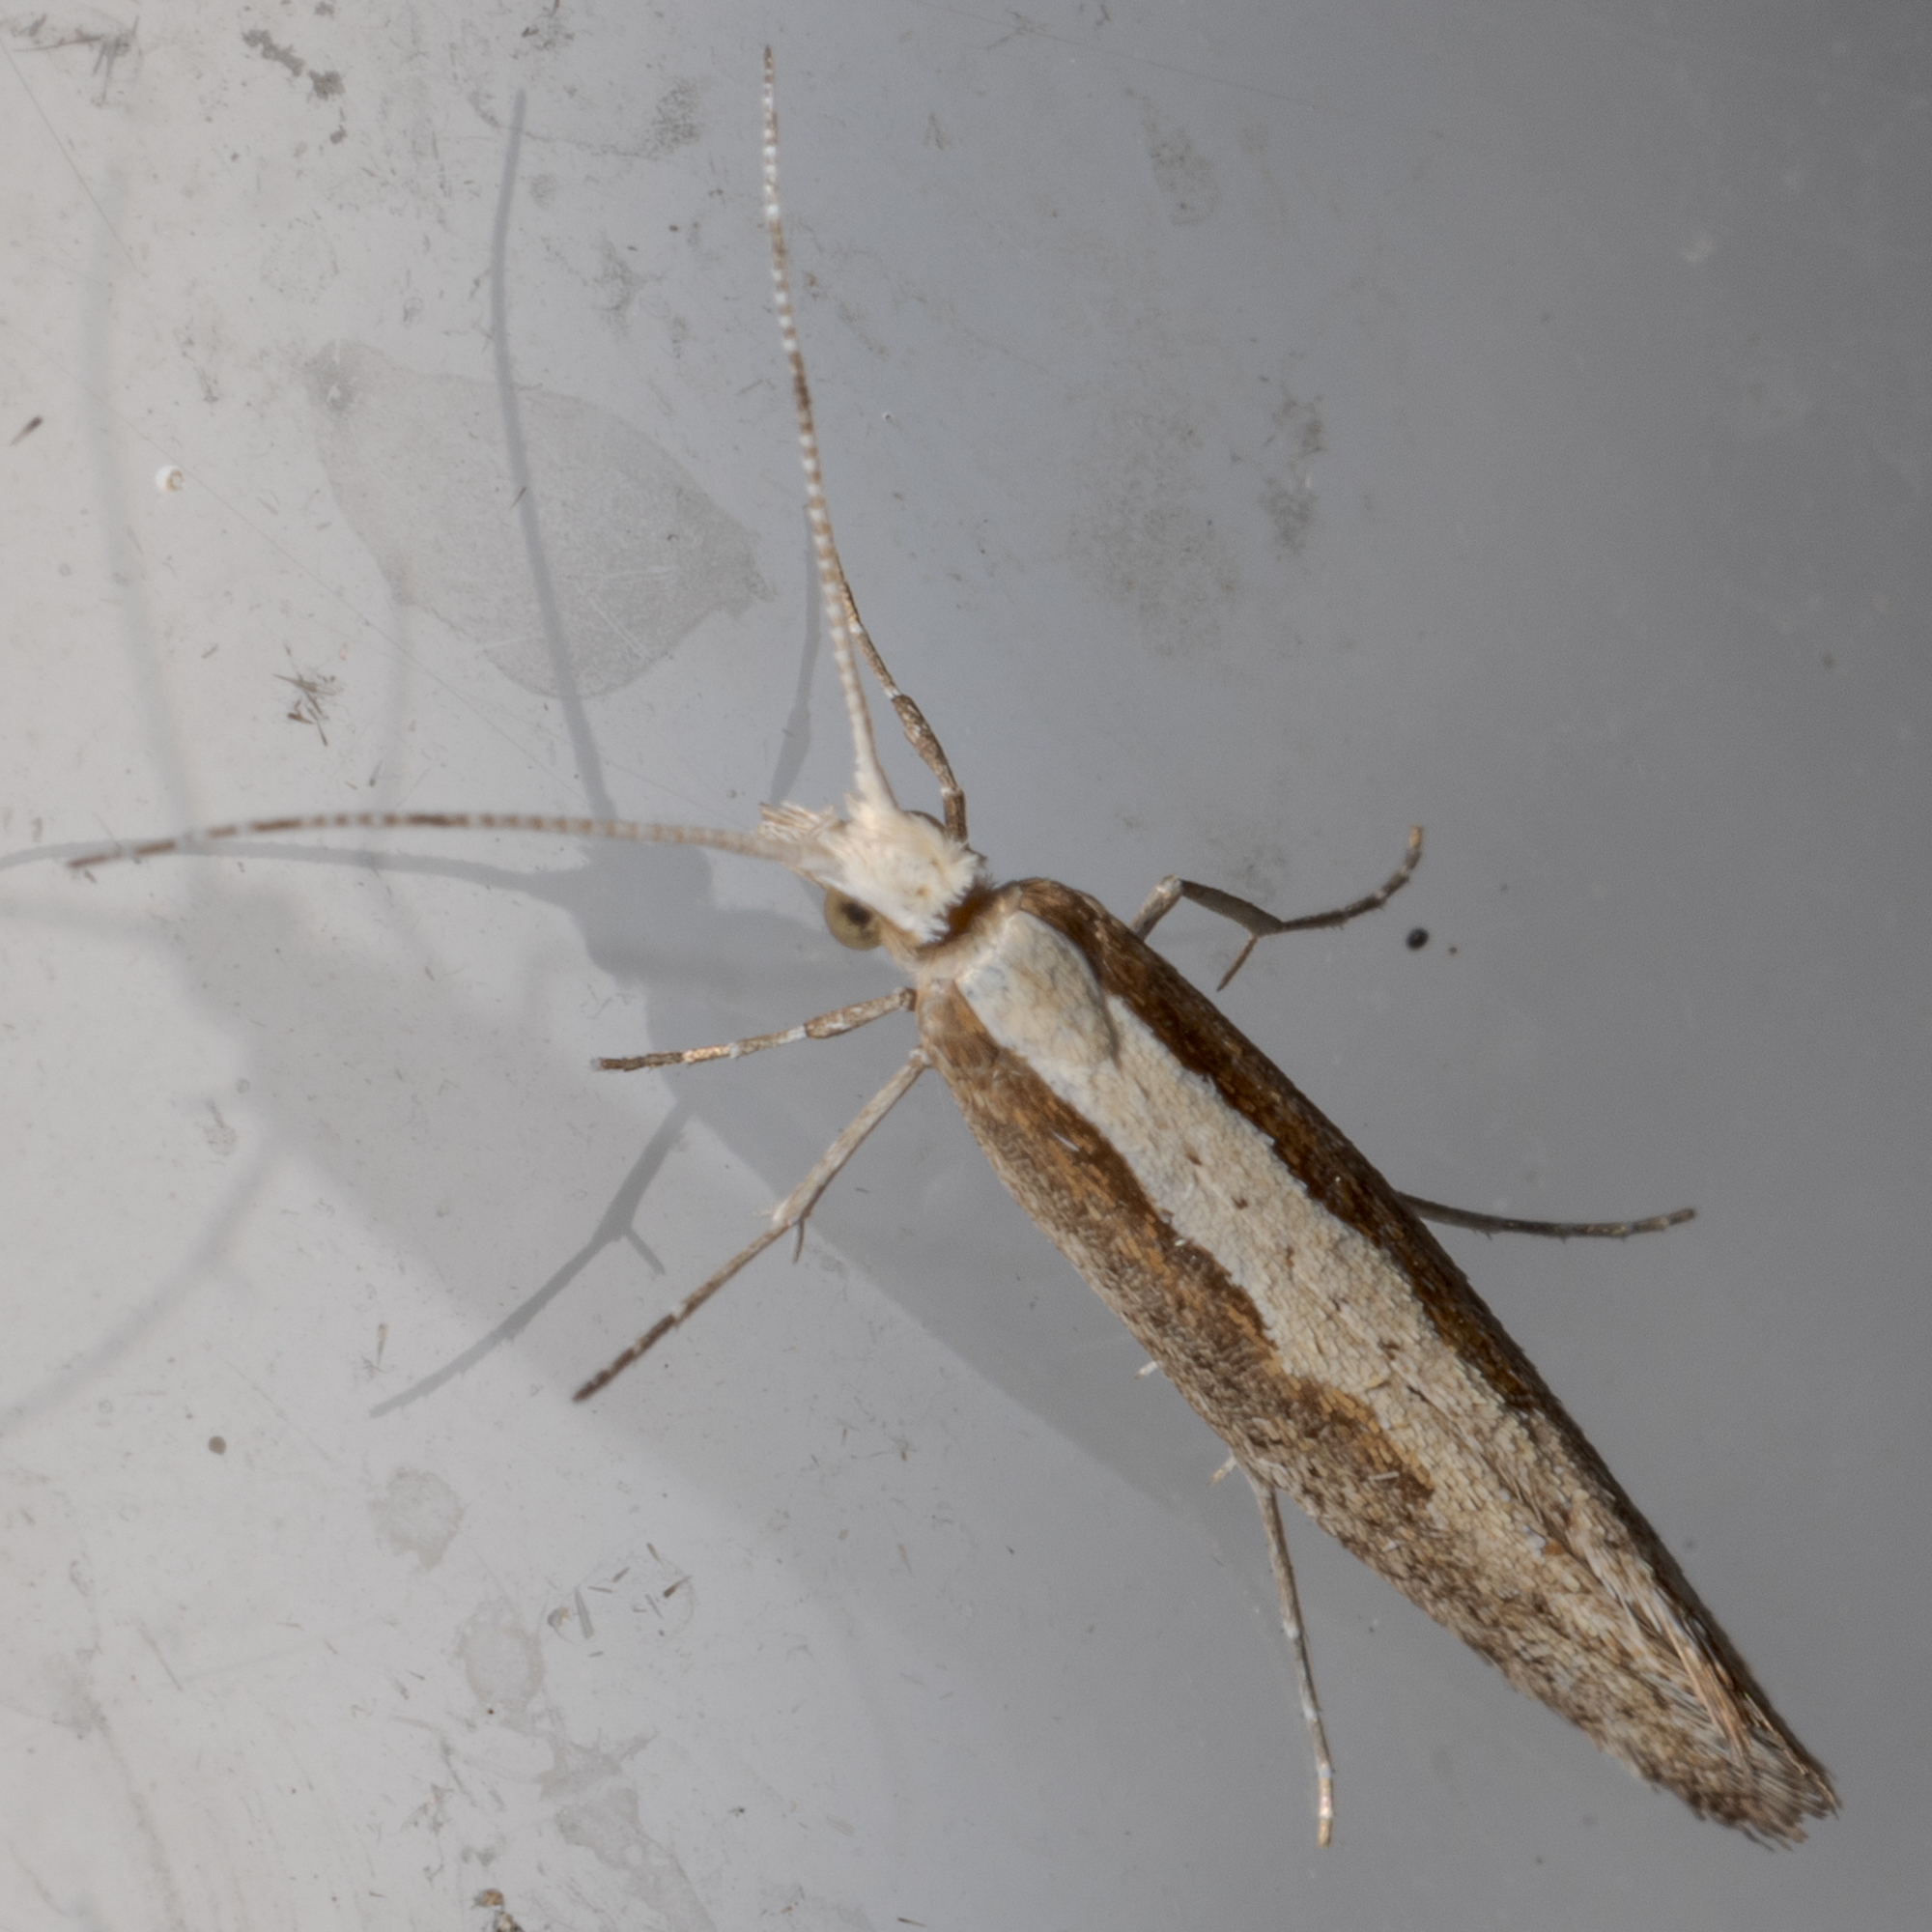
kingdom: Animalia
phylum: Arthropoda
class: Insecta
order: Lepidoptera
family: Plutellidae
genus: Plutella
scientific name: Plutella xylostella
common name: Diamond-back moth
